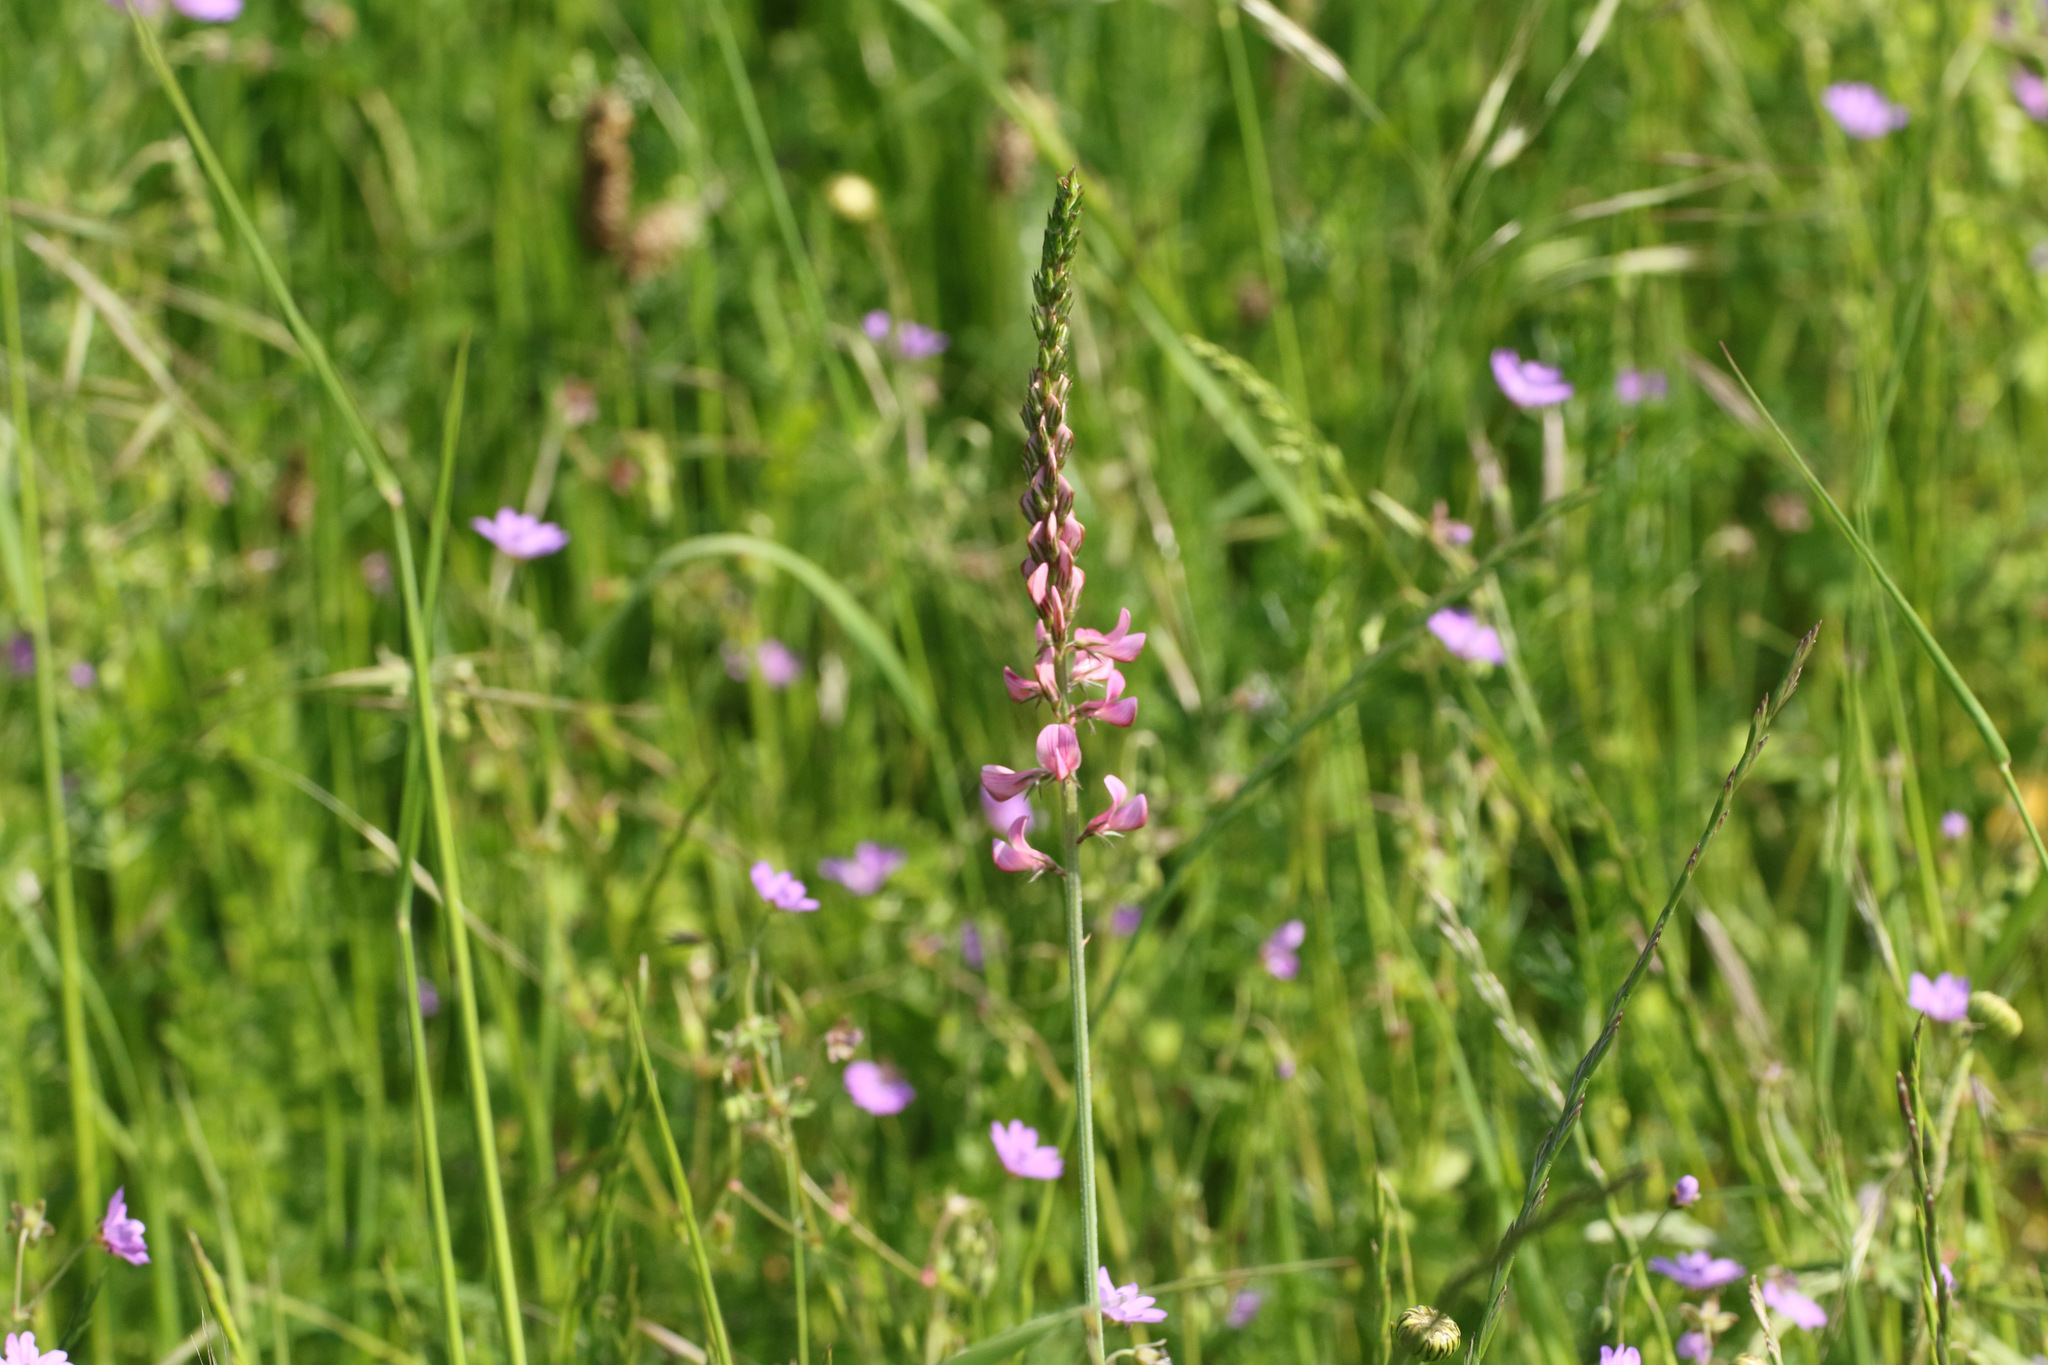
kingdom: Plantae
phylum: Tracheophyta
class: Magnoliopsida
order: Fabales
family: Fabaceae
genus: Onobrychis
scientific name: Onobrychis viciifolia
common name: Sainfoin
